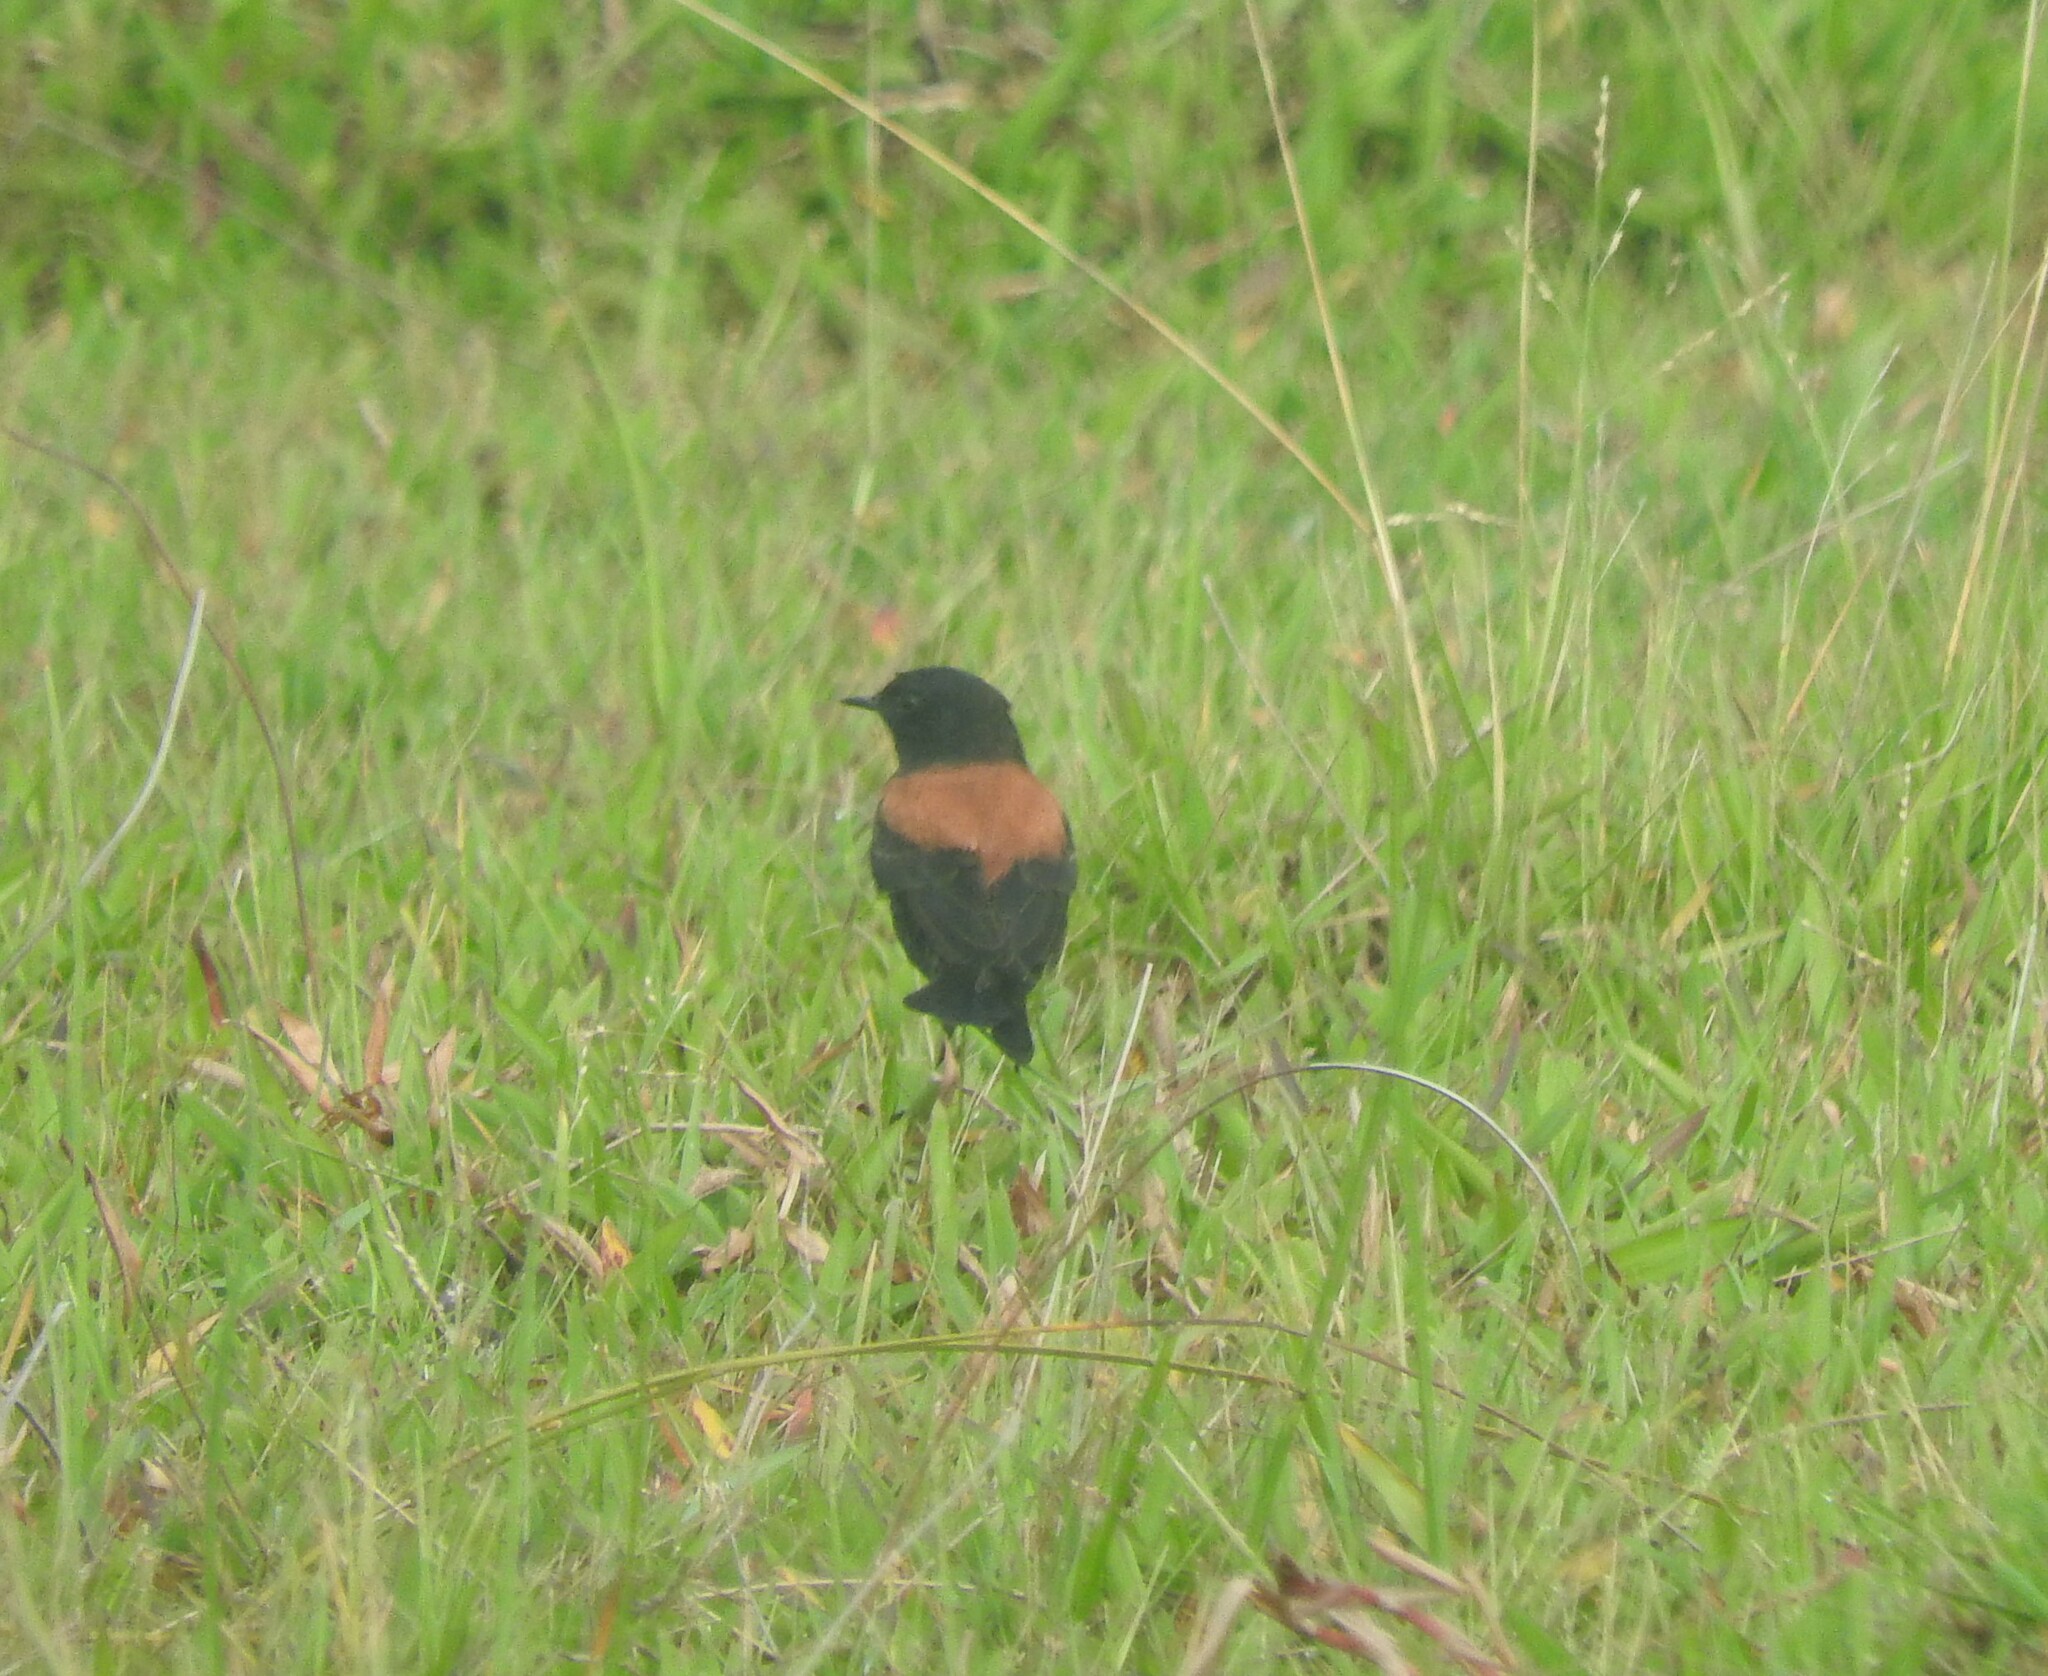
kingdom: Animalia
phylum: Chordata
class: Aves
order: Passeriformes
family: Tyrannidae
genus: Lessonia
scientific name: Lessonia rufa
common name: Austral negrito
